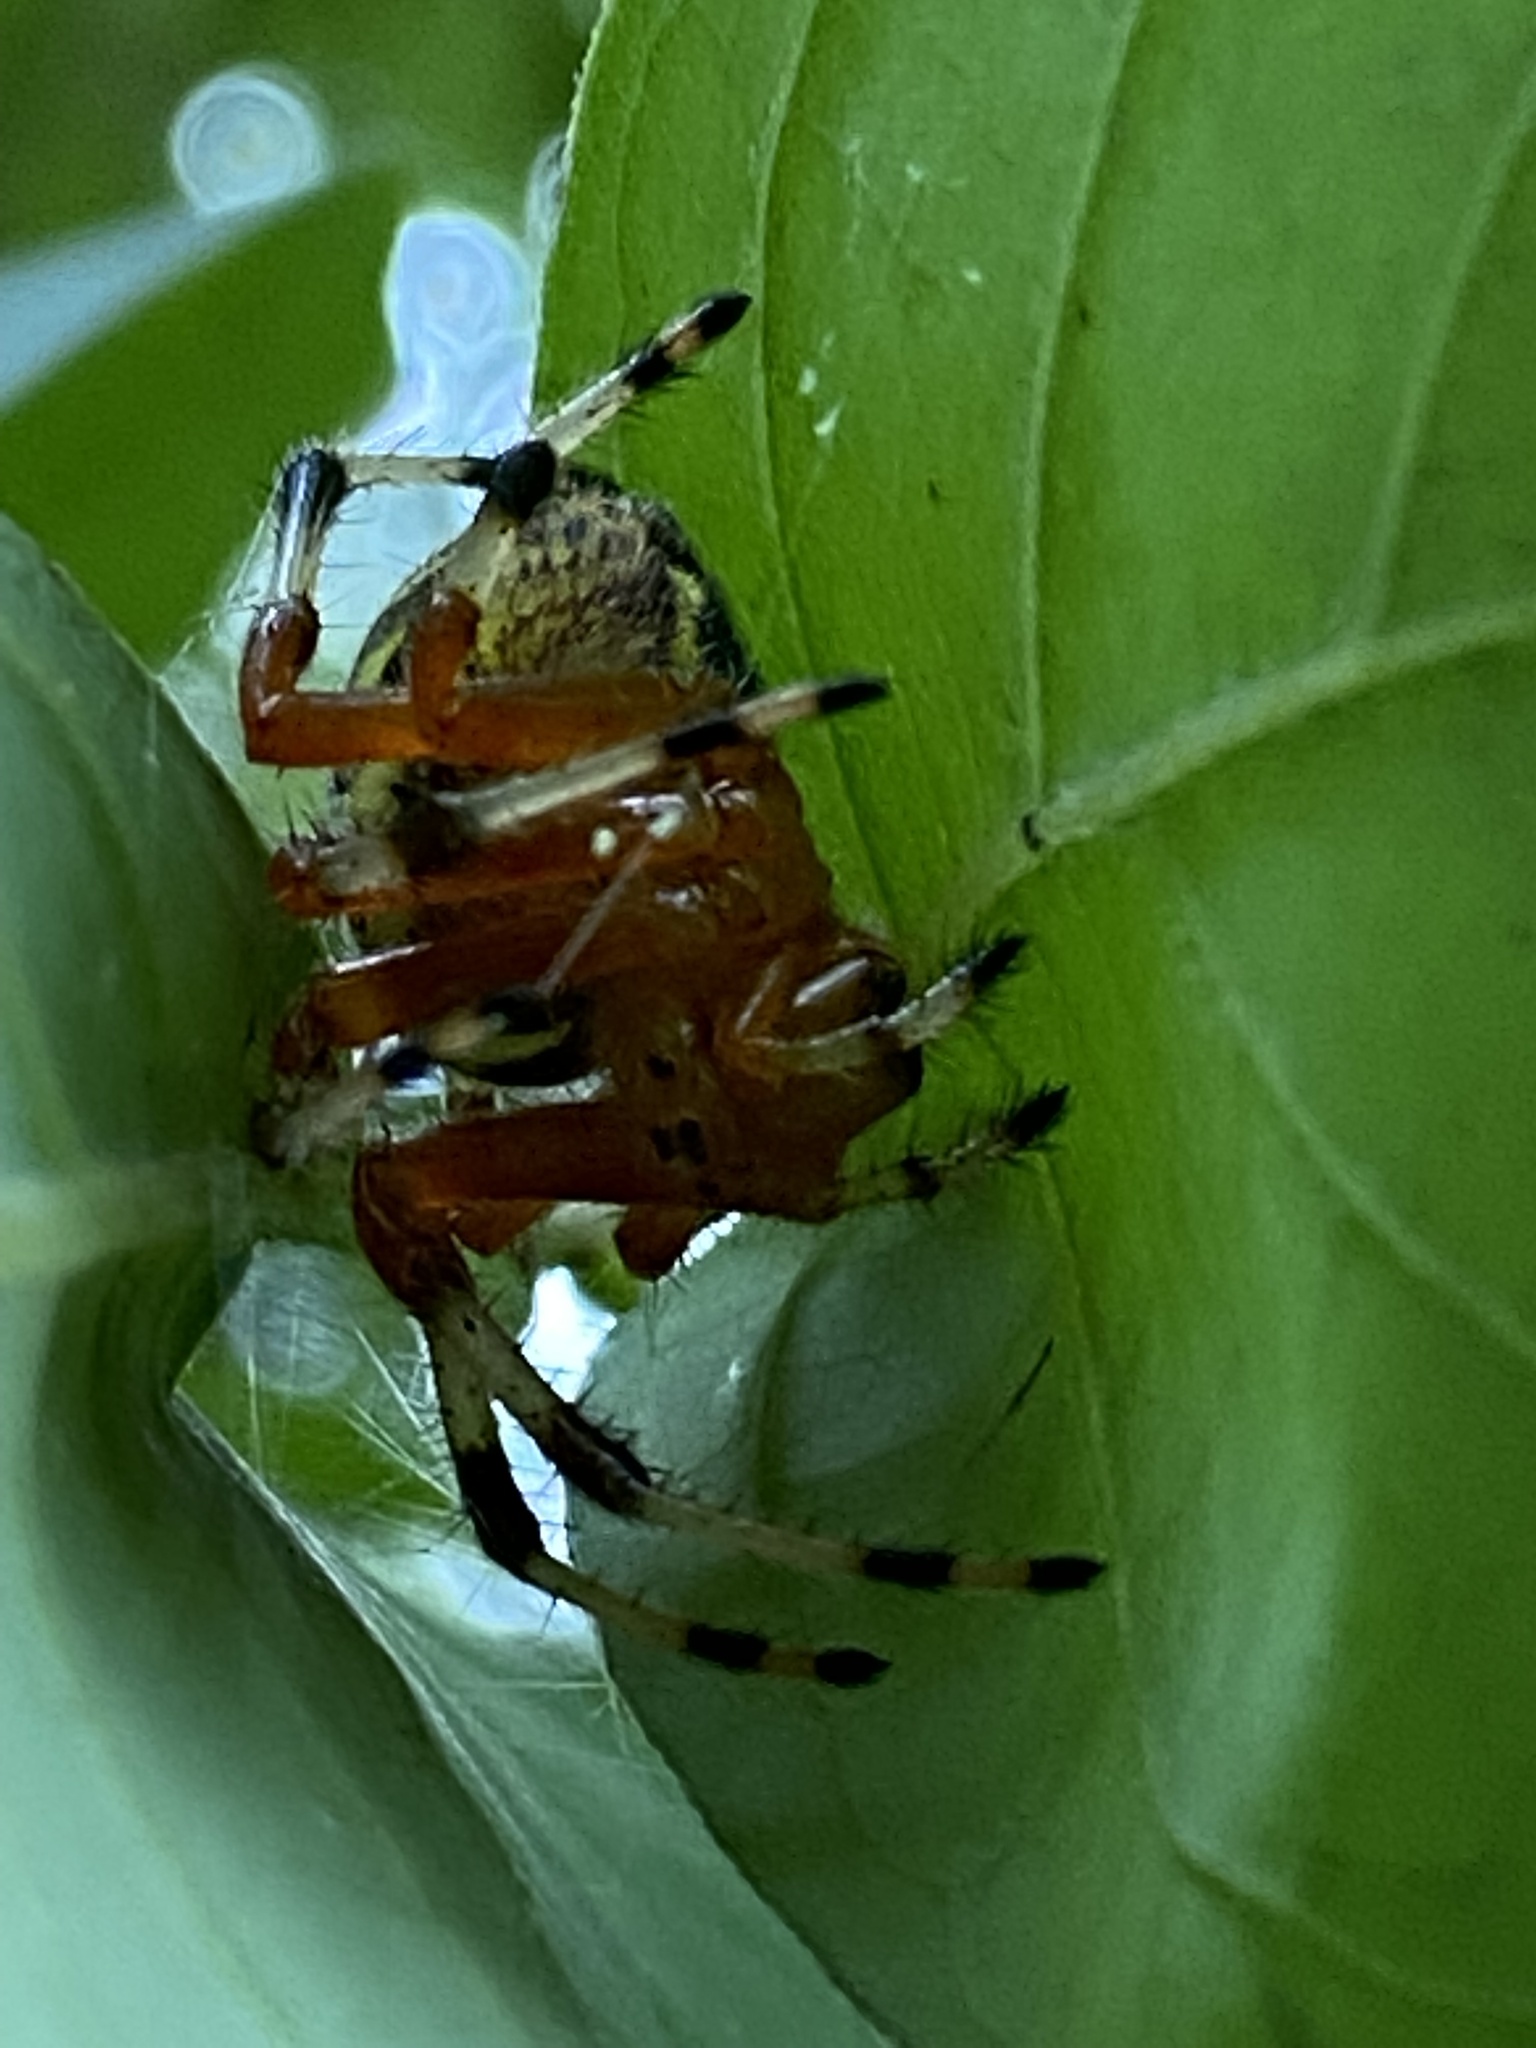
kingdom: Animalia
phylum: Arthropoda
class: Arachnida
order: Araneae
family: Araneidae
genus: Araneus
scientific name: Araneus marmoreus
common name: Marbled orbweaver
